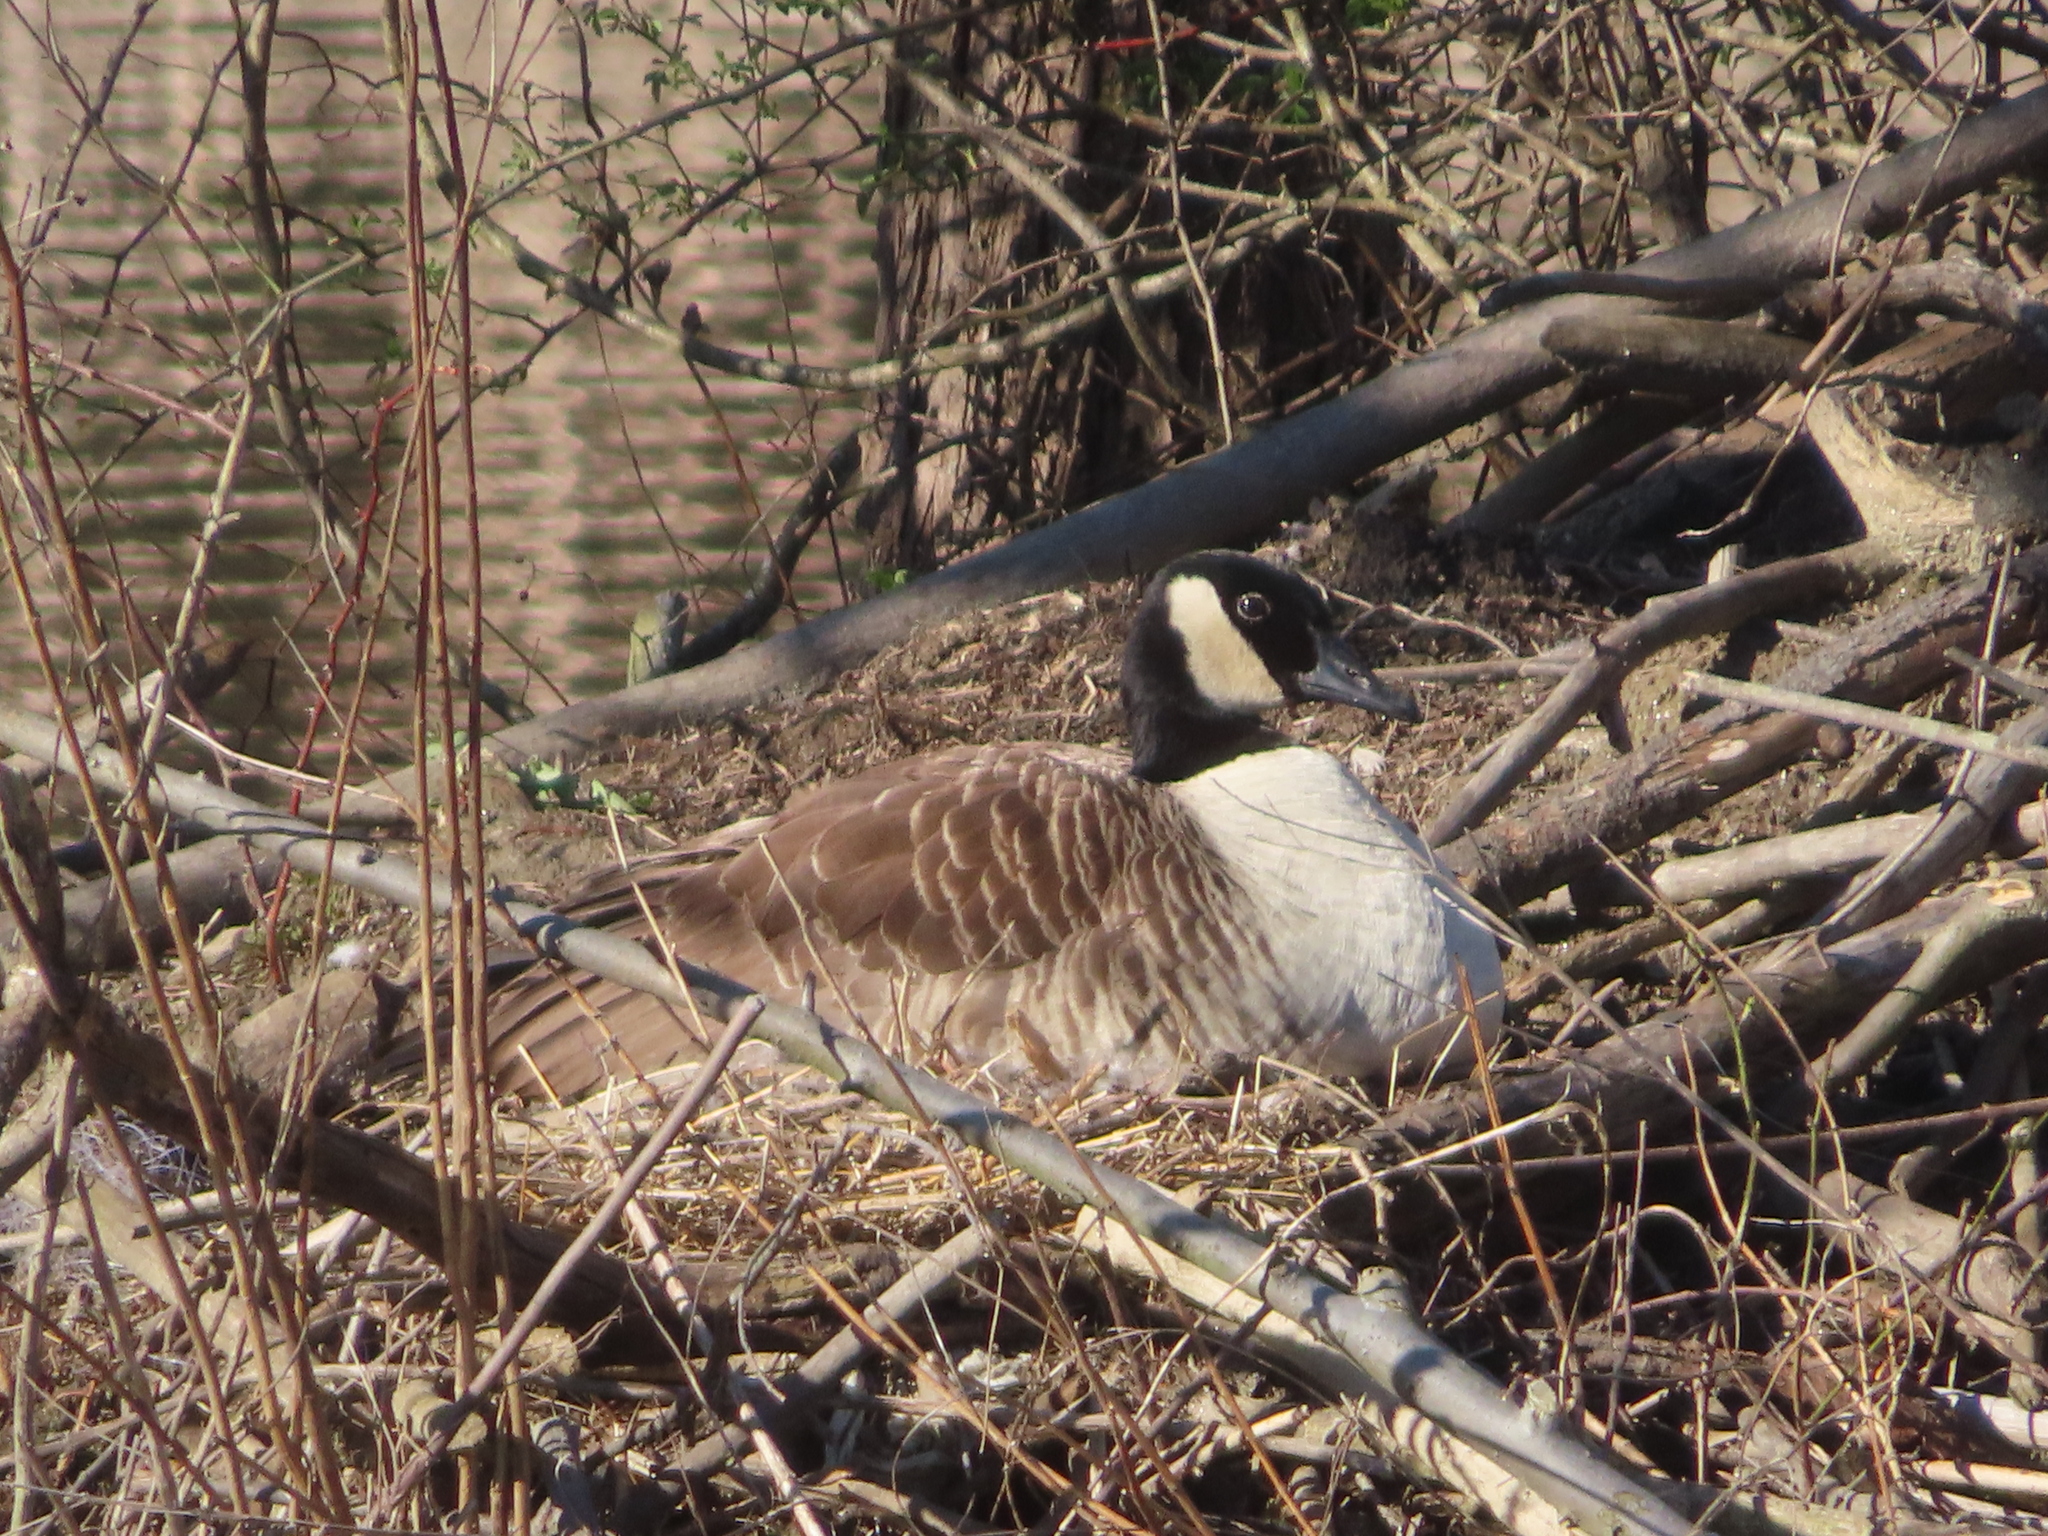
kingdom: Animalia
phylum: Chordata
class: Aves
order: Anseriformes
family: Anatidae
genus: Branta
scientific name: Branta canadensis
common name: Canada goose
